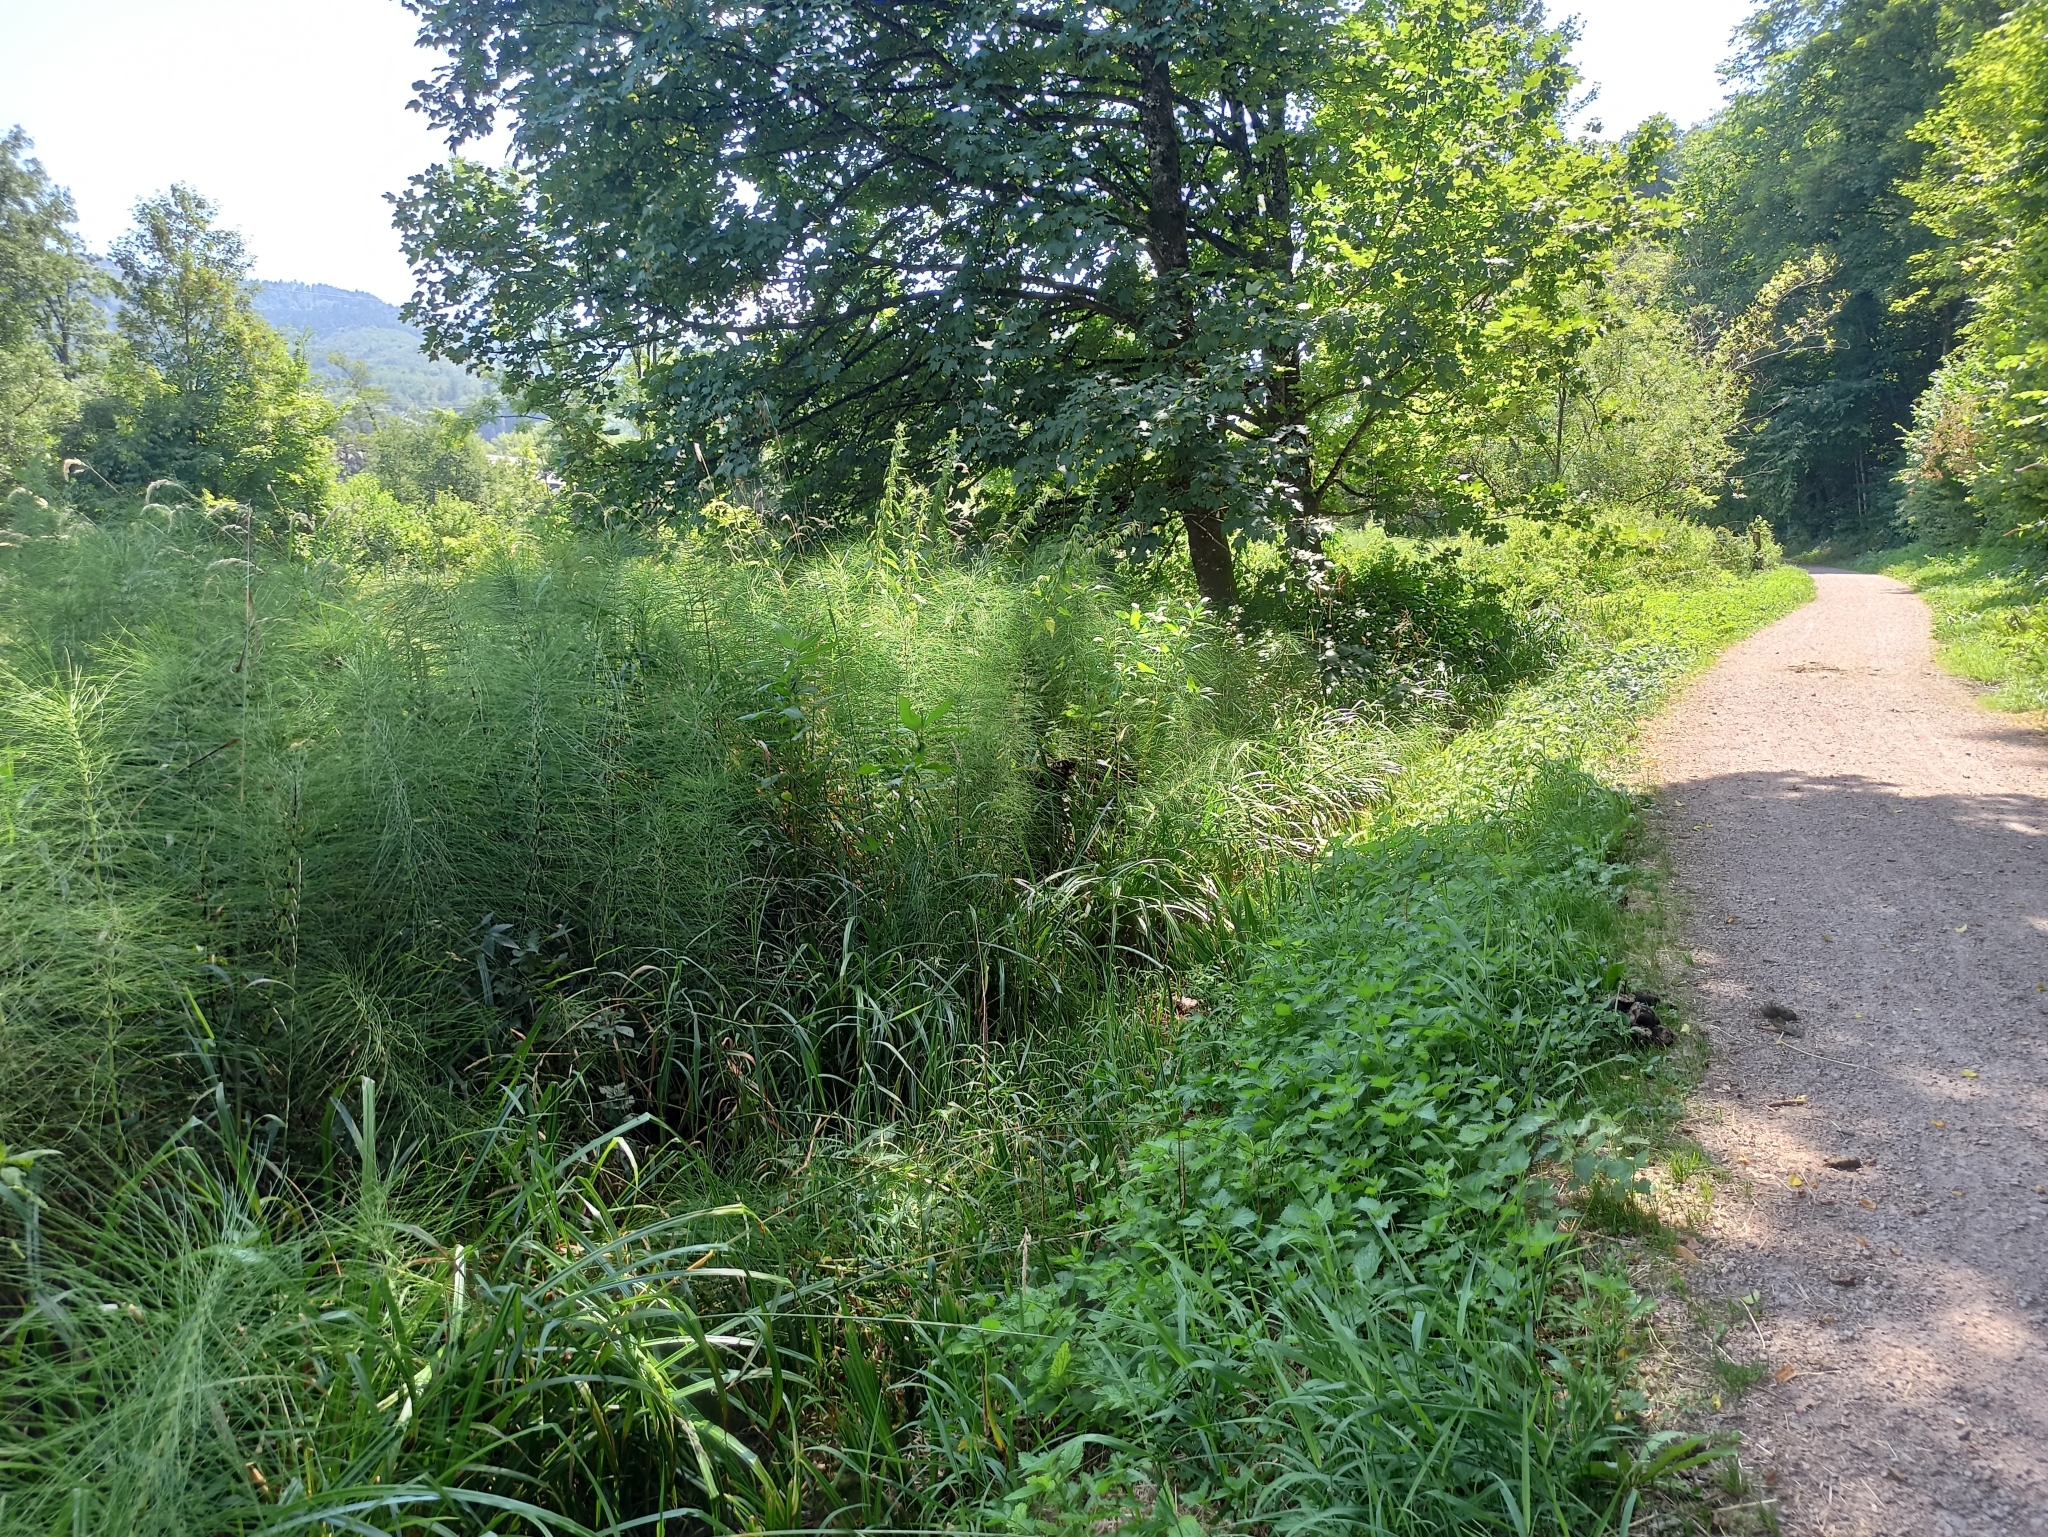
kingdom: Plantae
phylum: Tracheophyta
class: Polypodiopsida
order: Equisetales
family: Equisetaceae
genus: Equisetum
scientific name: Equisetum telmateia
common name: Great horsetail
